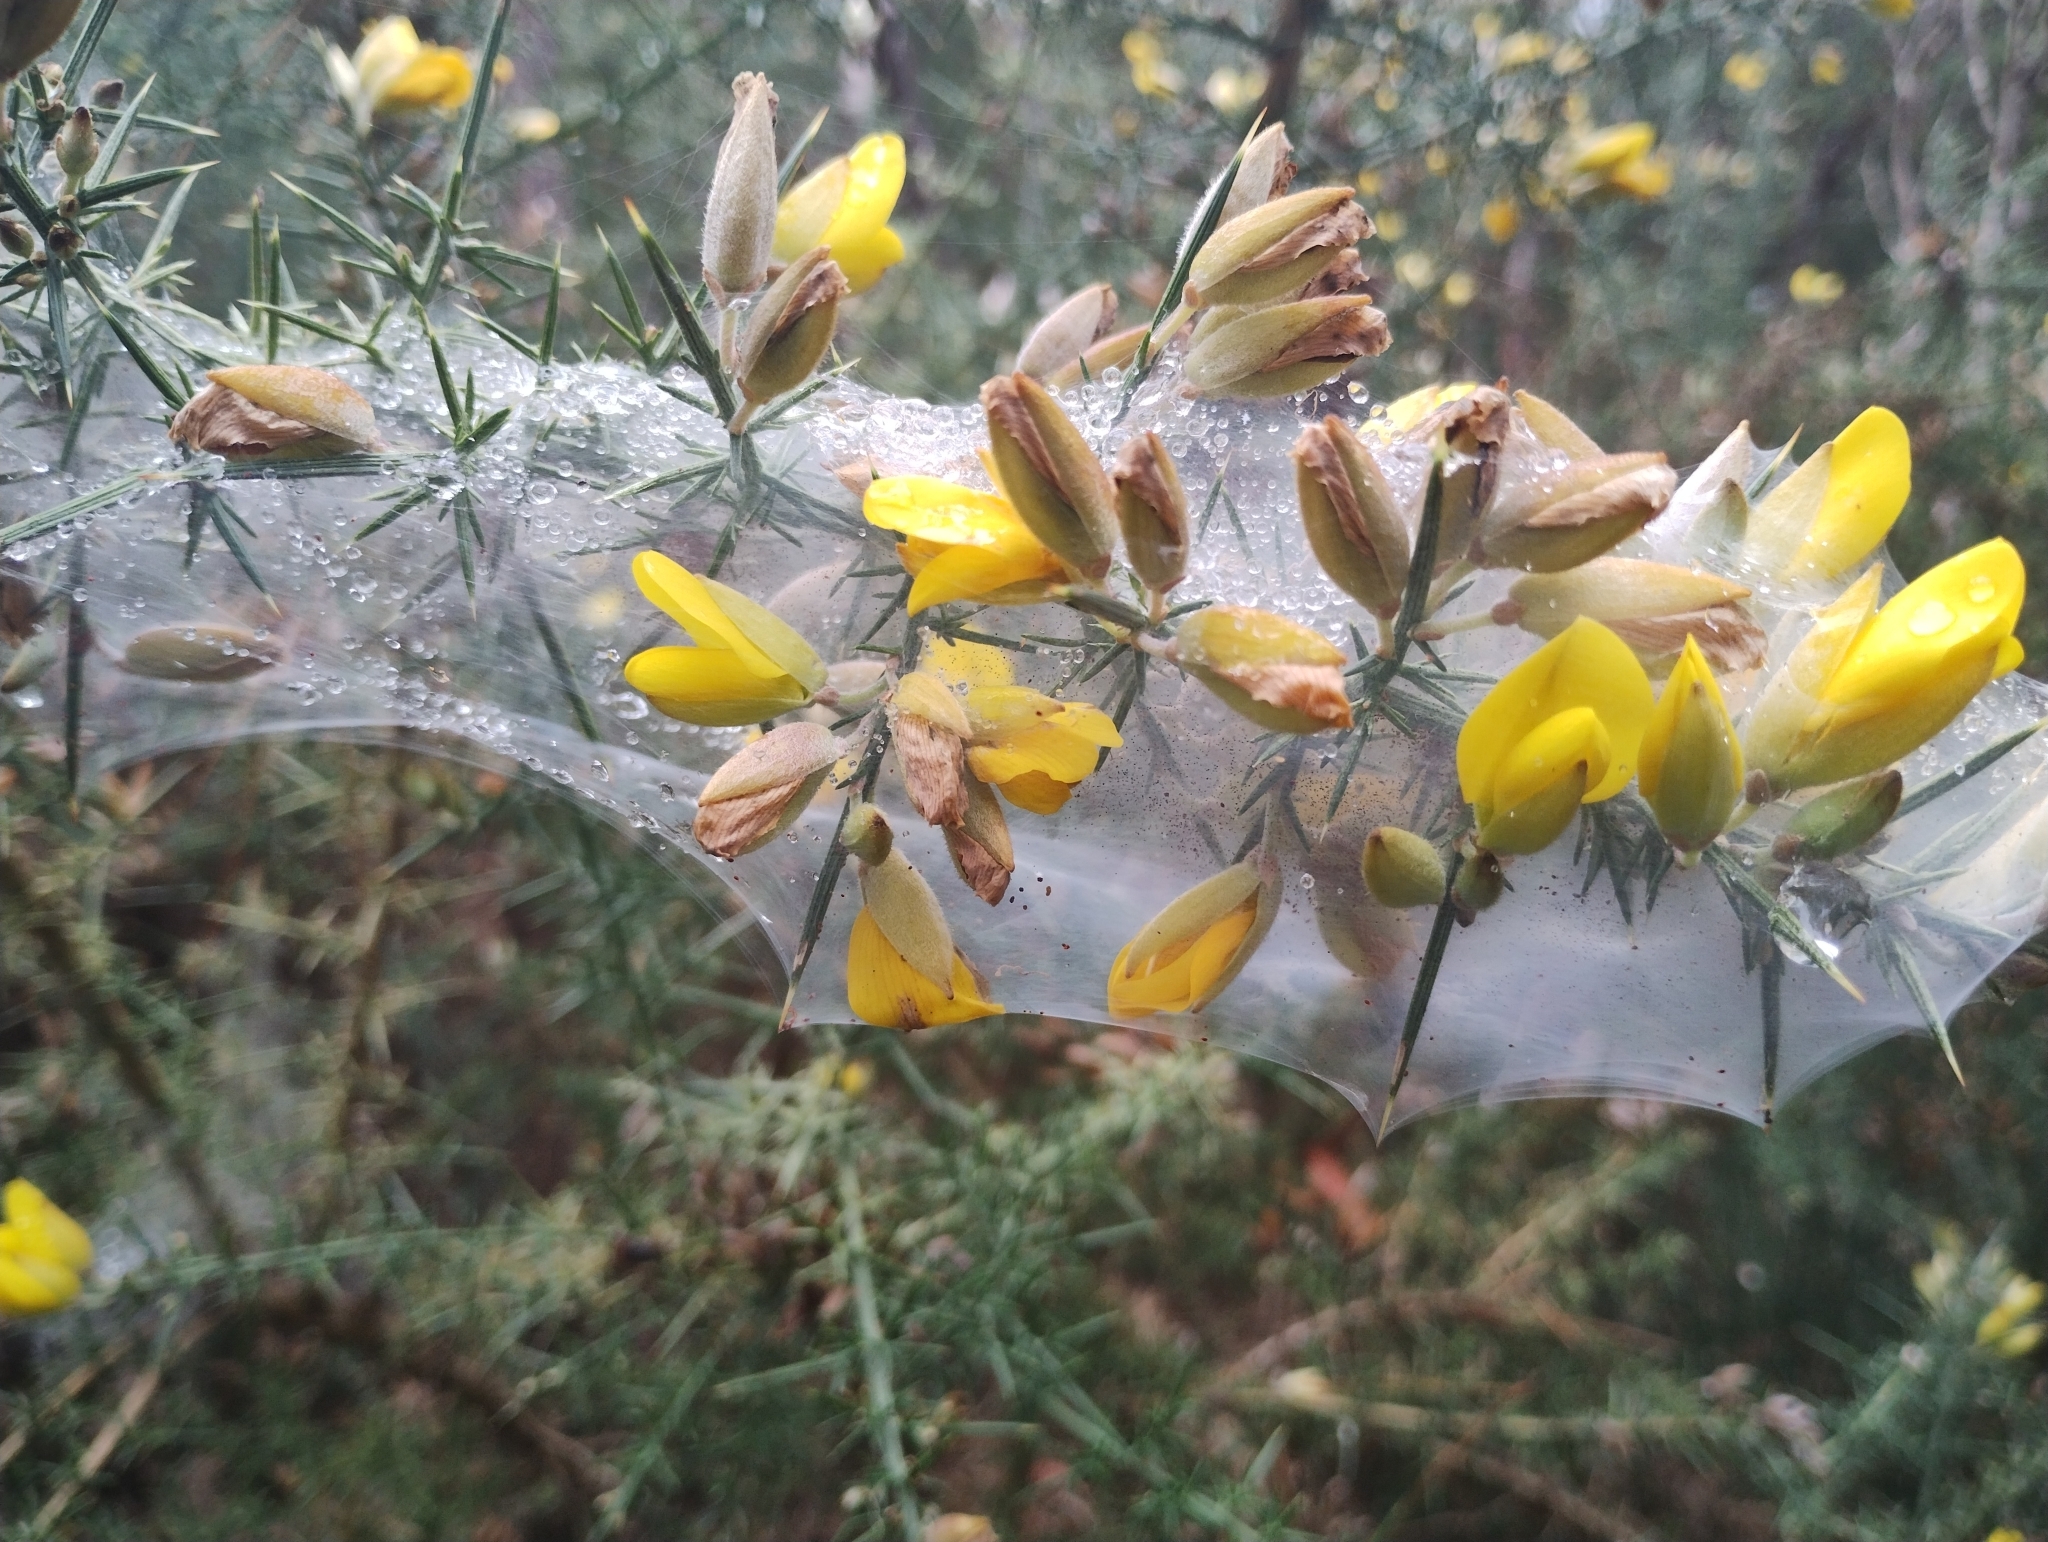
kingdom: Animalia
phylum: Arthropoda
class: Arachnida
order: Trombidiformes
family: Tetranychidae
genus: Tetranychus
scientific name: Tetranychus lintearius
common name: Gorse spider mite
